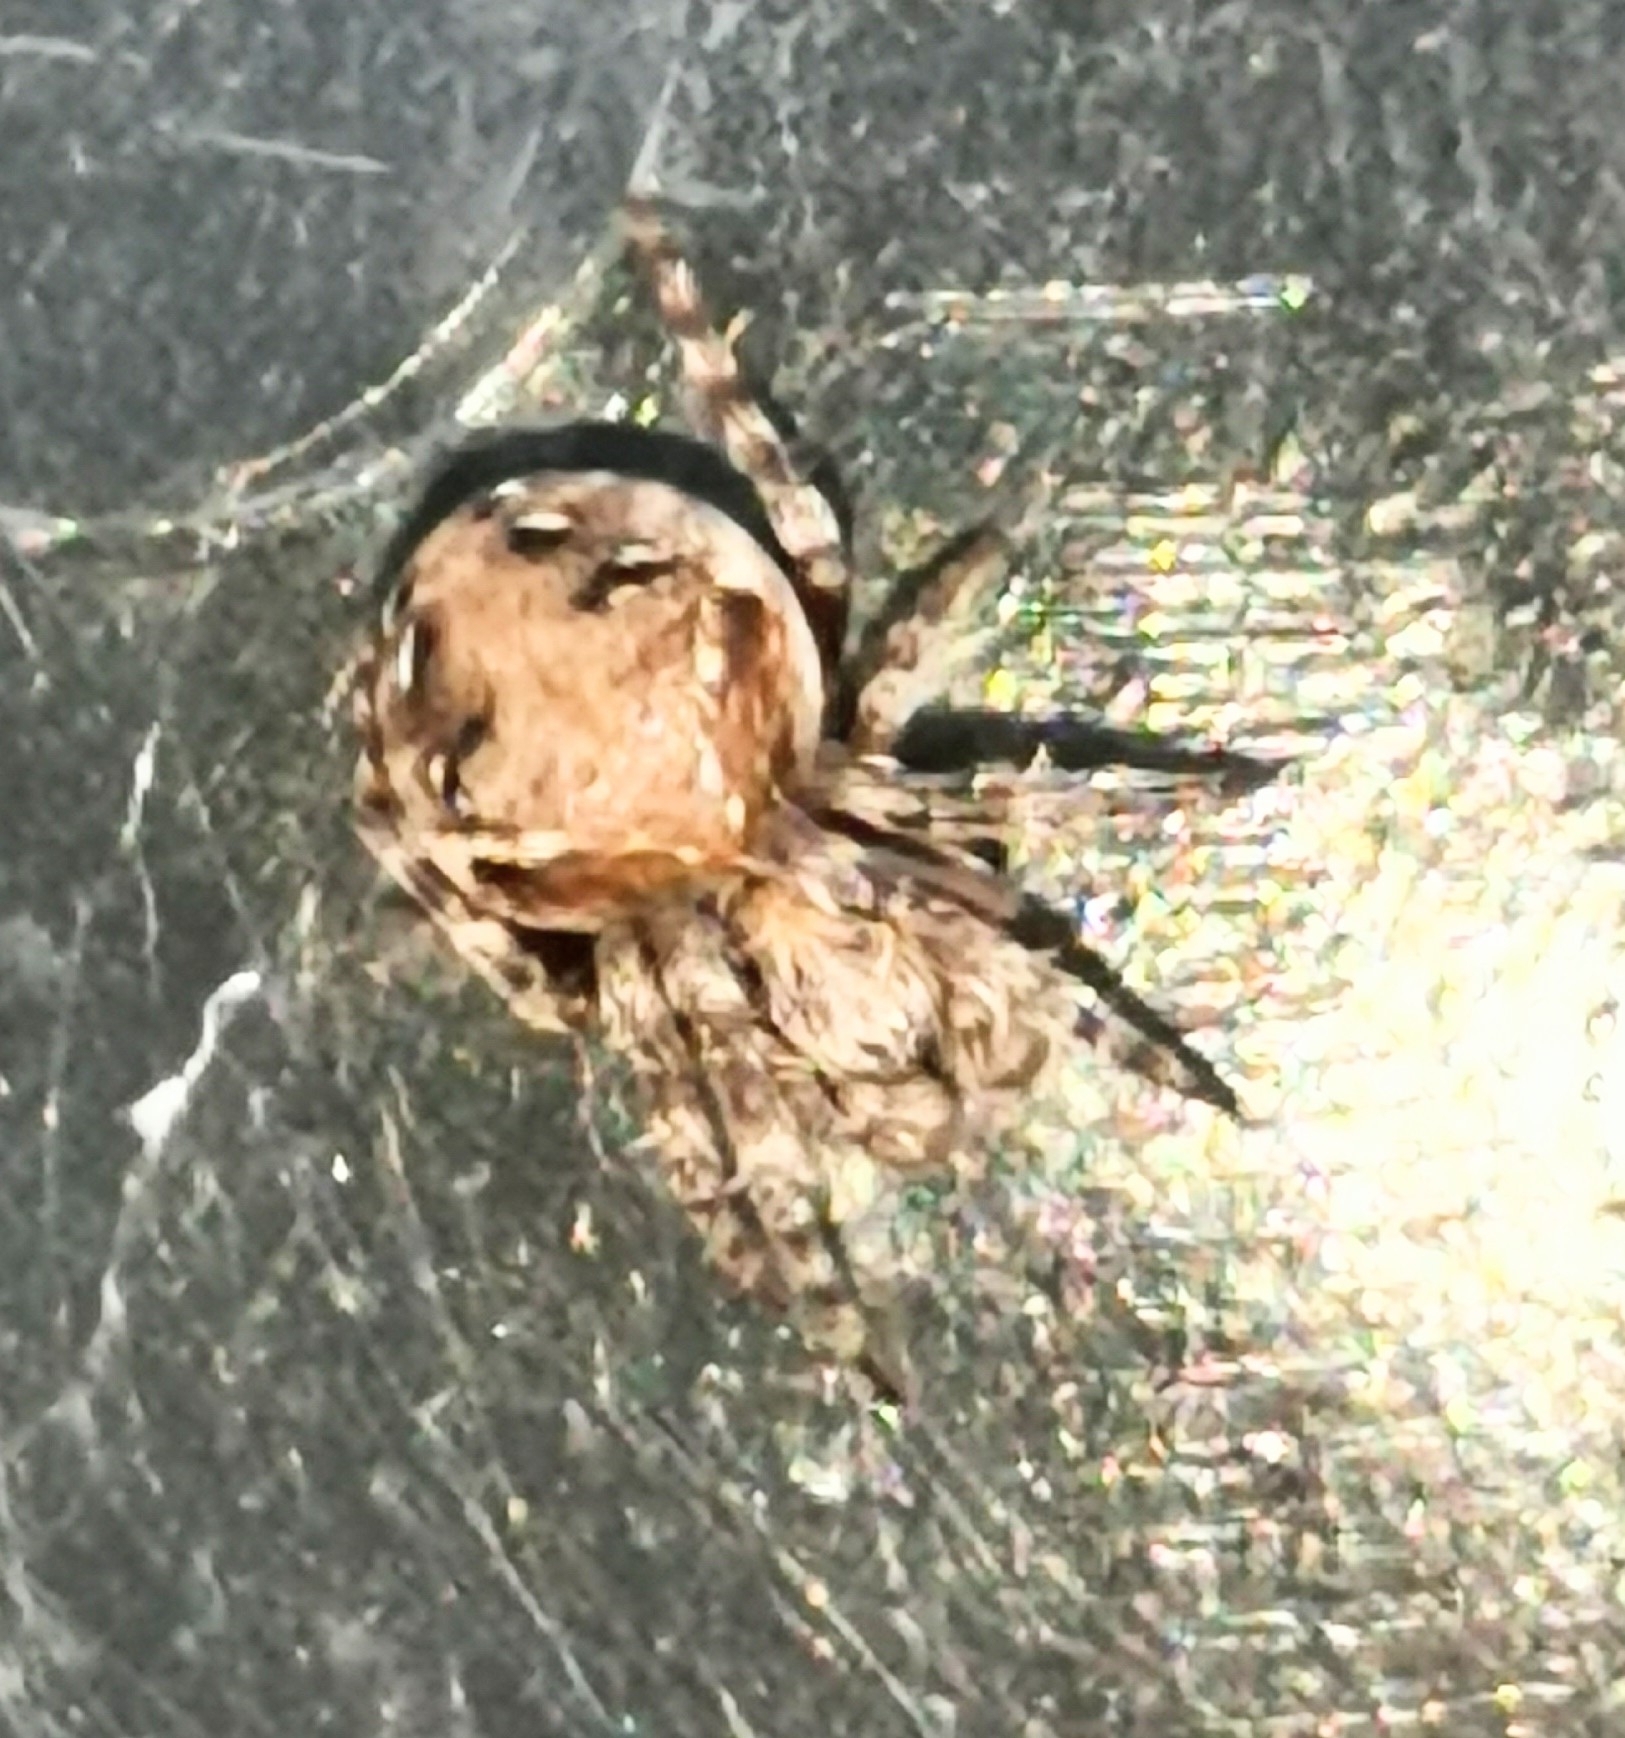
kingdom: Animalia
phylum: Arthropoda
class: Arachnida
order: Araneae
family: Araneidae
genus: Araneus
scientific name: Araneus sturmi
